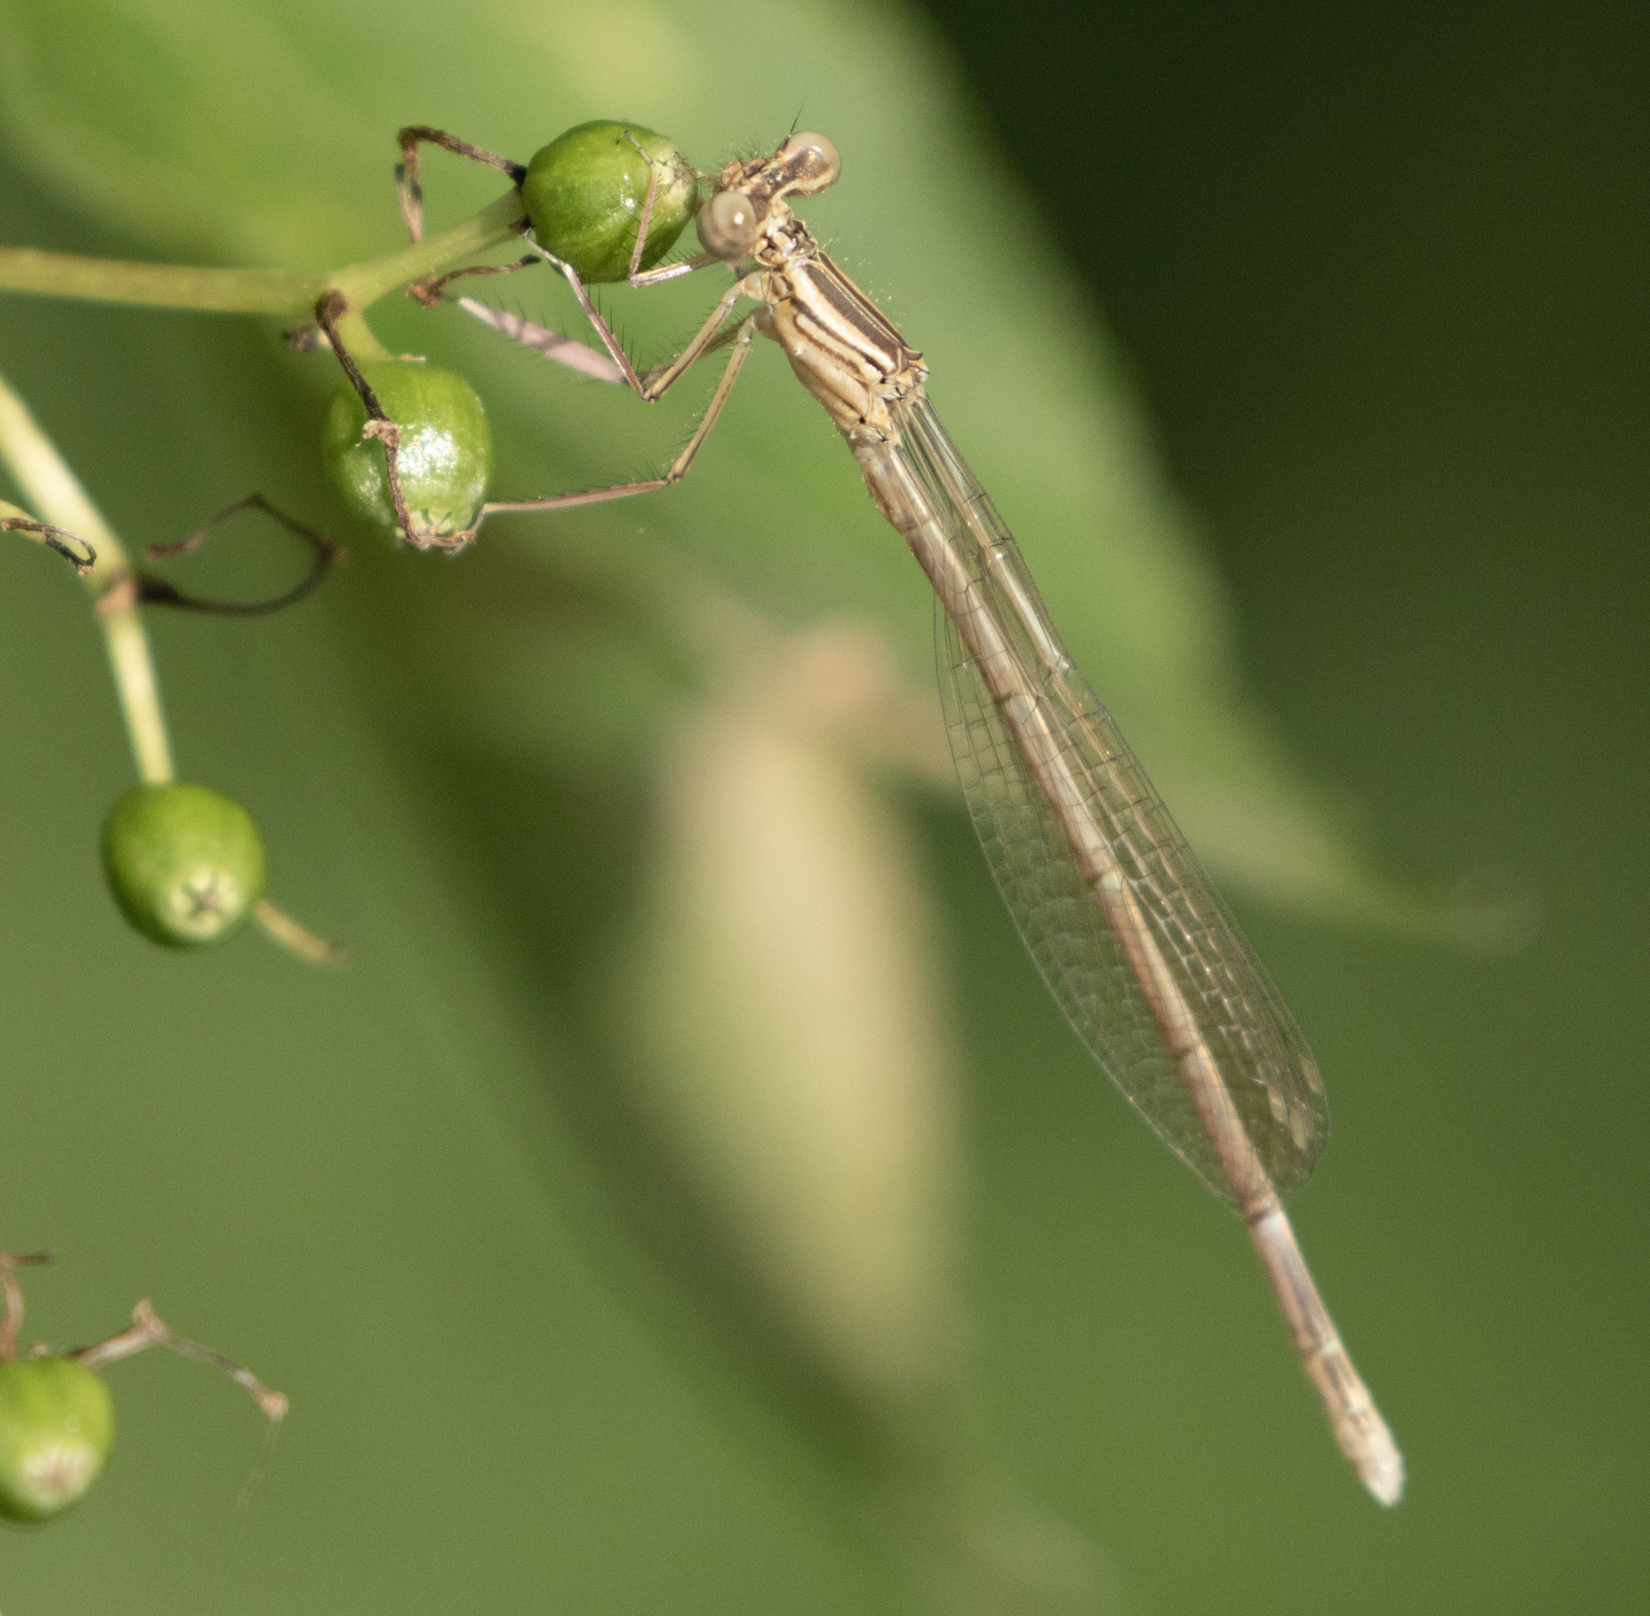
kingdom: Animalia
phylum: Arthropoda
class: Insecta
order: Odonata
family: Platycnemididae
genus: Platycnemis
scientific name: Platycnemis pennipes
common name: White-legged damselfly
